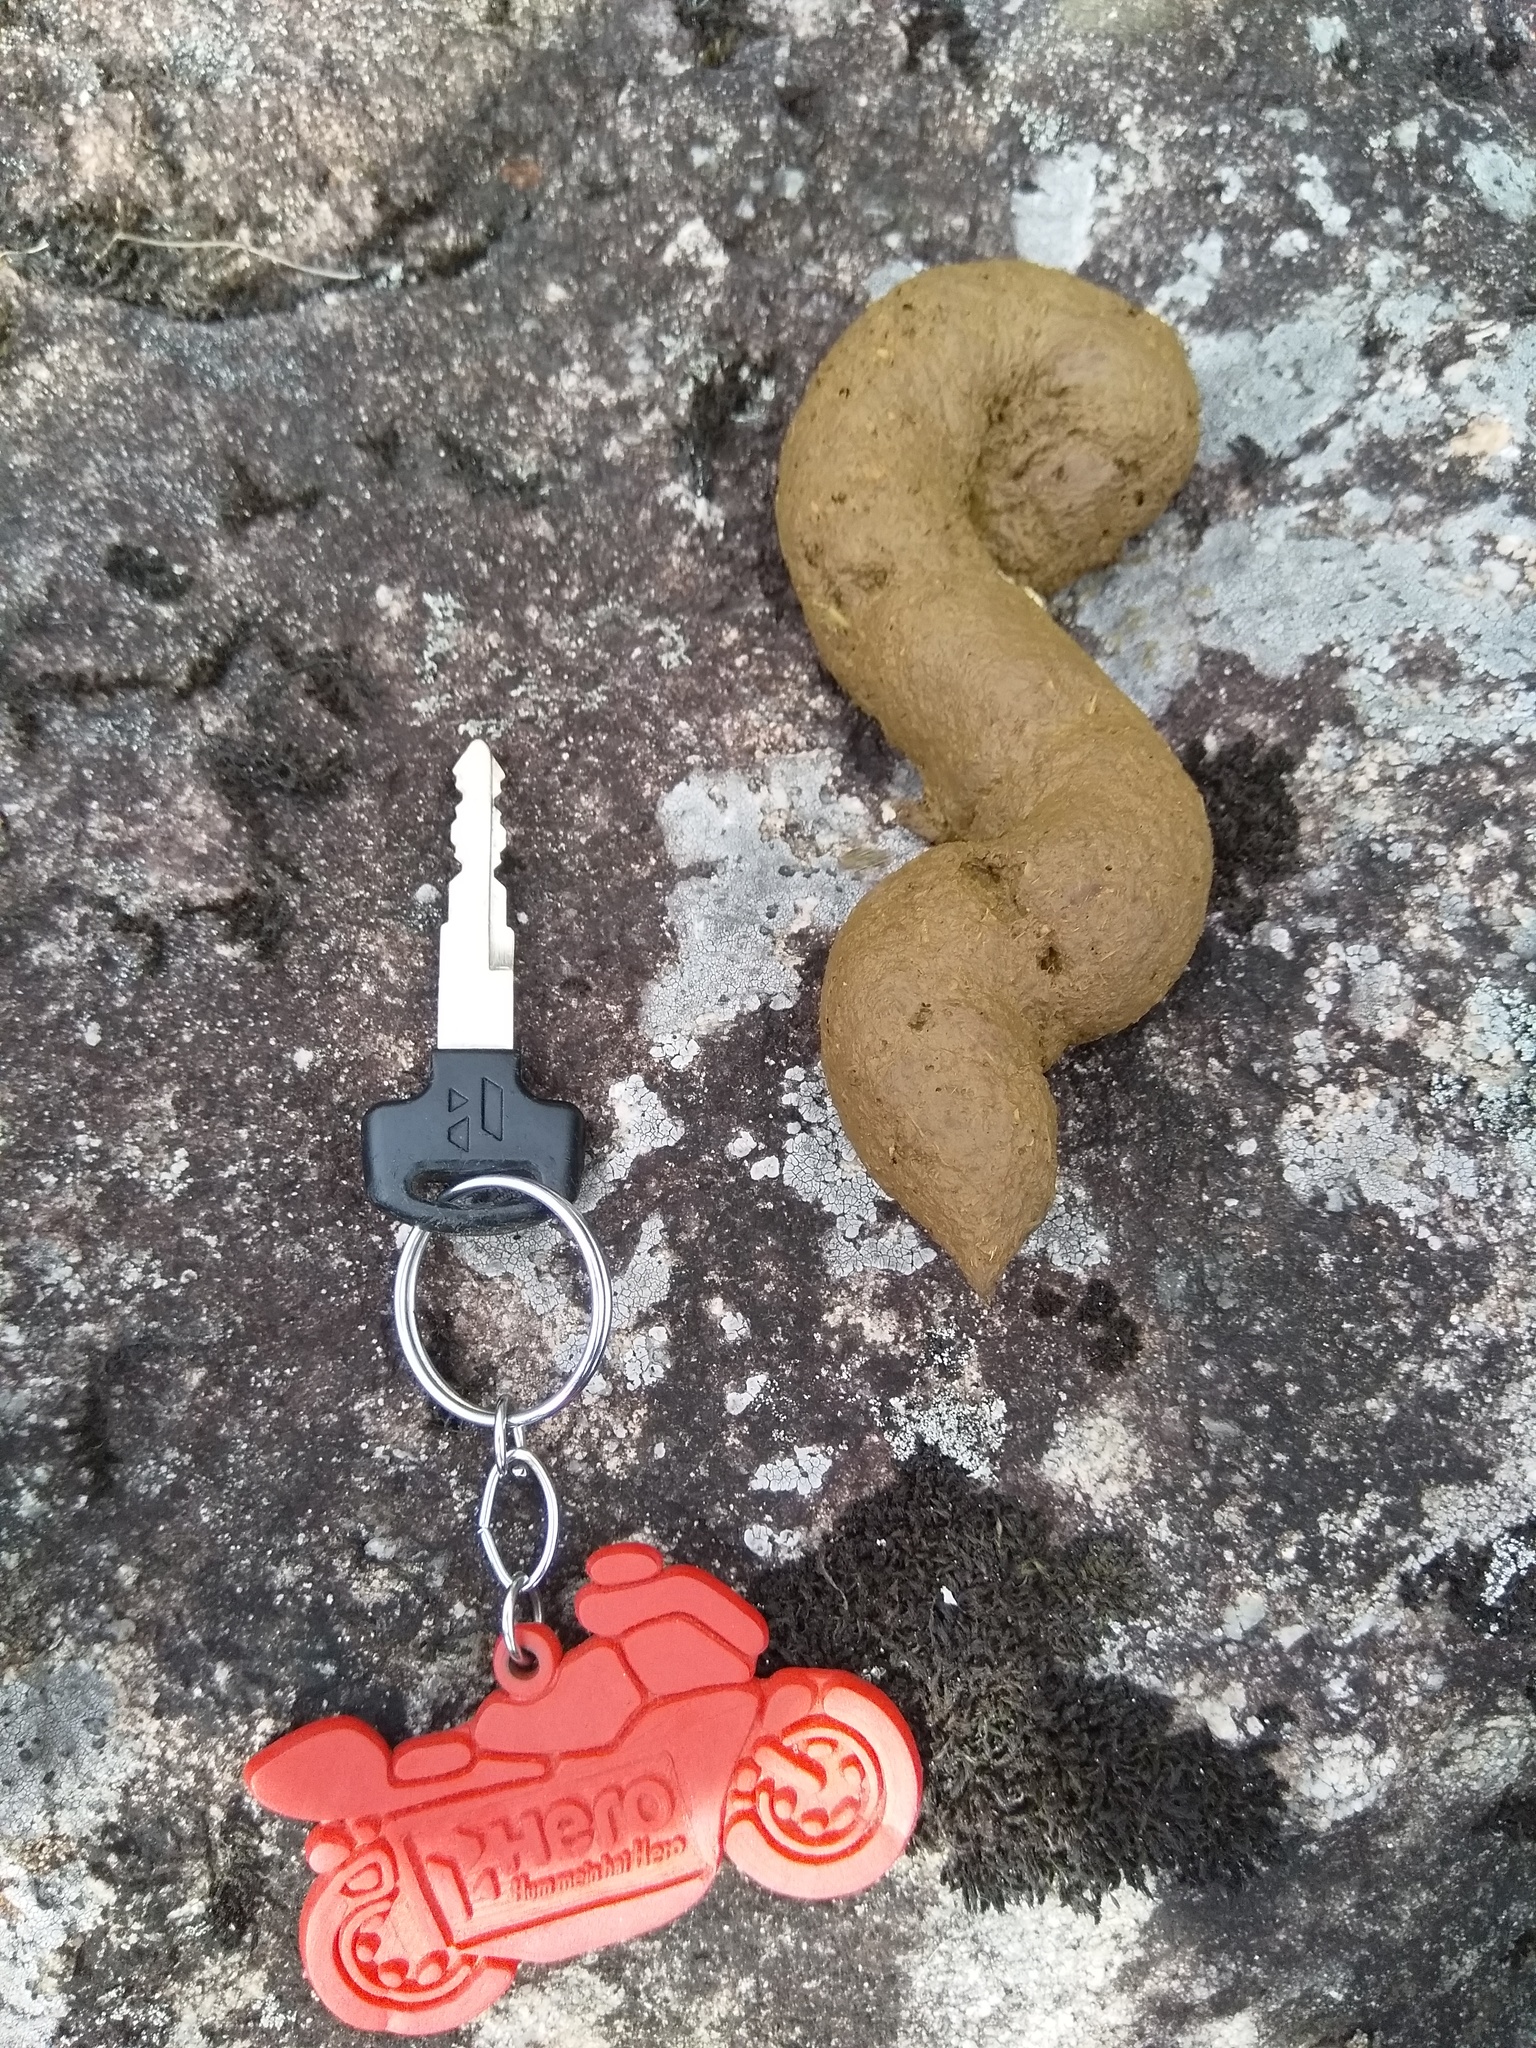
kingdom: Animalia
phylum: Chordata
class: Mammalia
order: Primates
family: Cercopithecidae
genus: Semnopithecus
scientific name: Semnopithecus johnii
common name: Nilgiri langur
